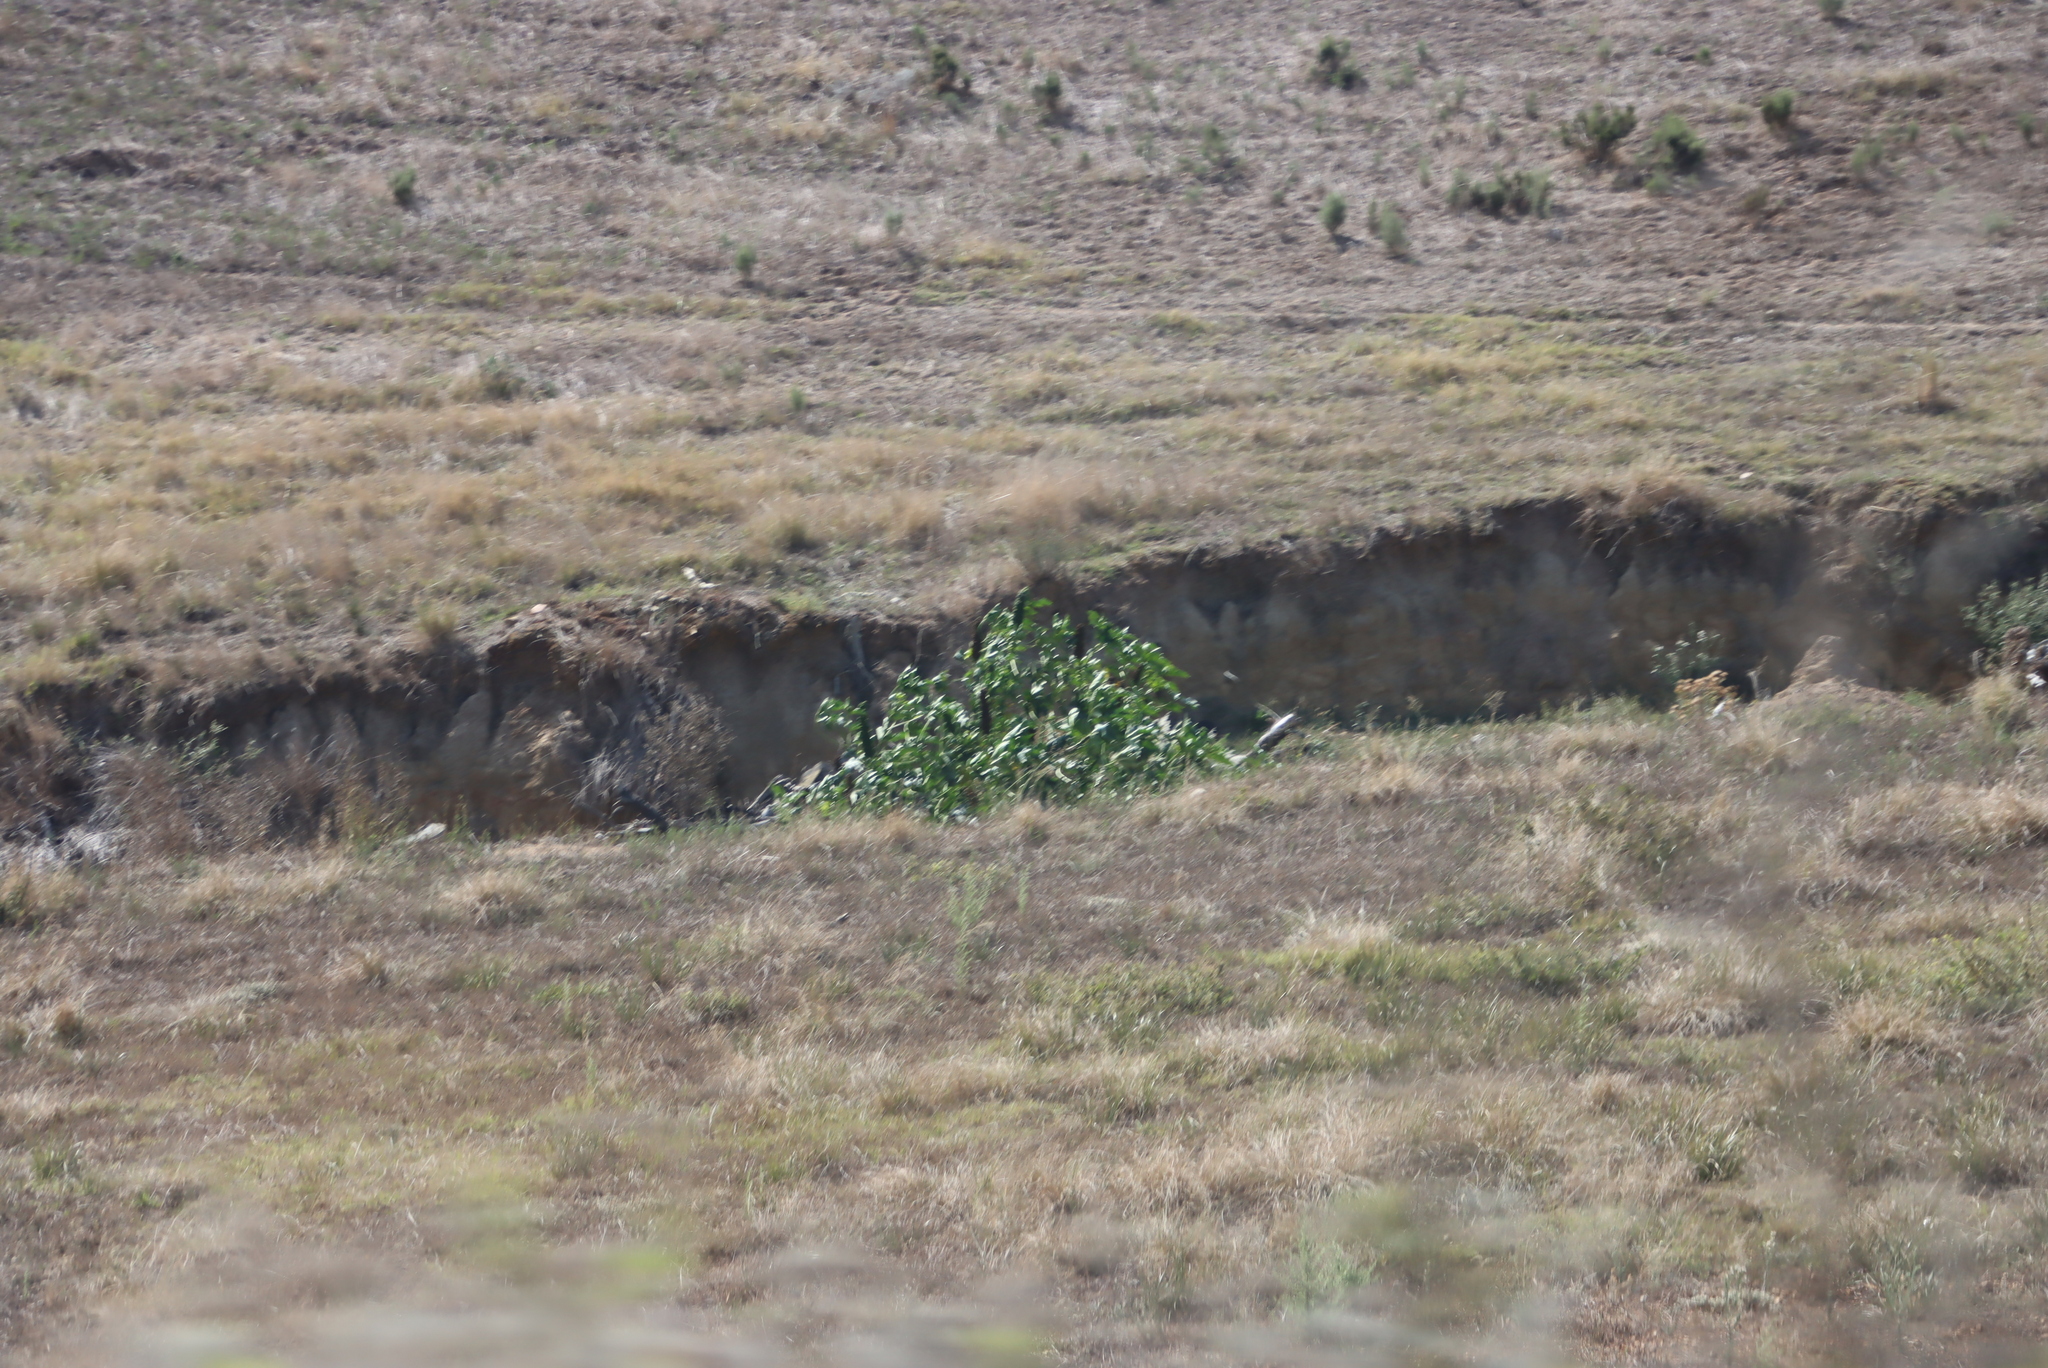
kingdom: Plantae
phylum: Tracheophyta
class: Magnoliopsida
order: Malpighiales
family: Euphorbiaceae
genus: Ricinus
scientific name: Ricinus communis
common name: Castor-oil-plant
